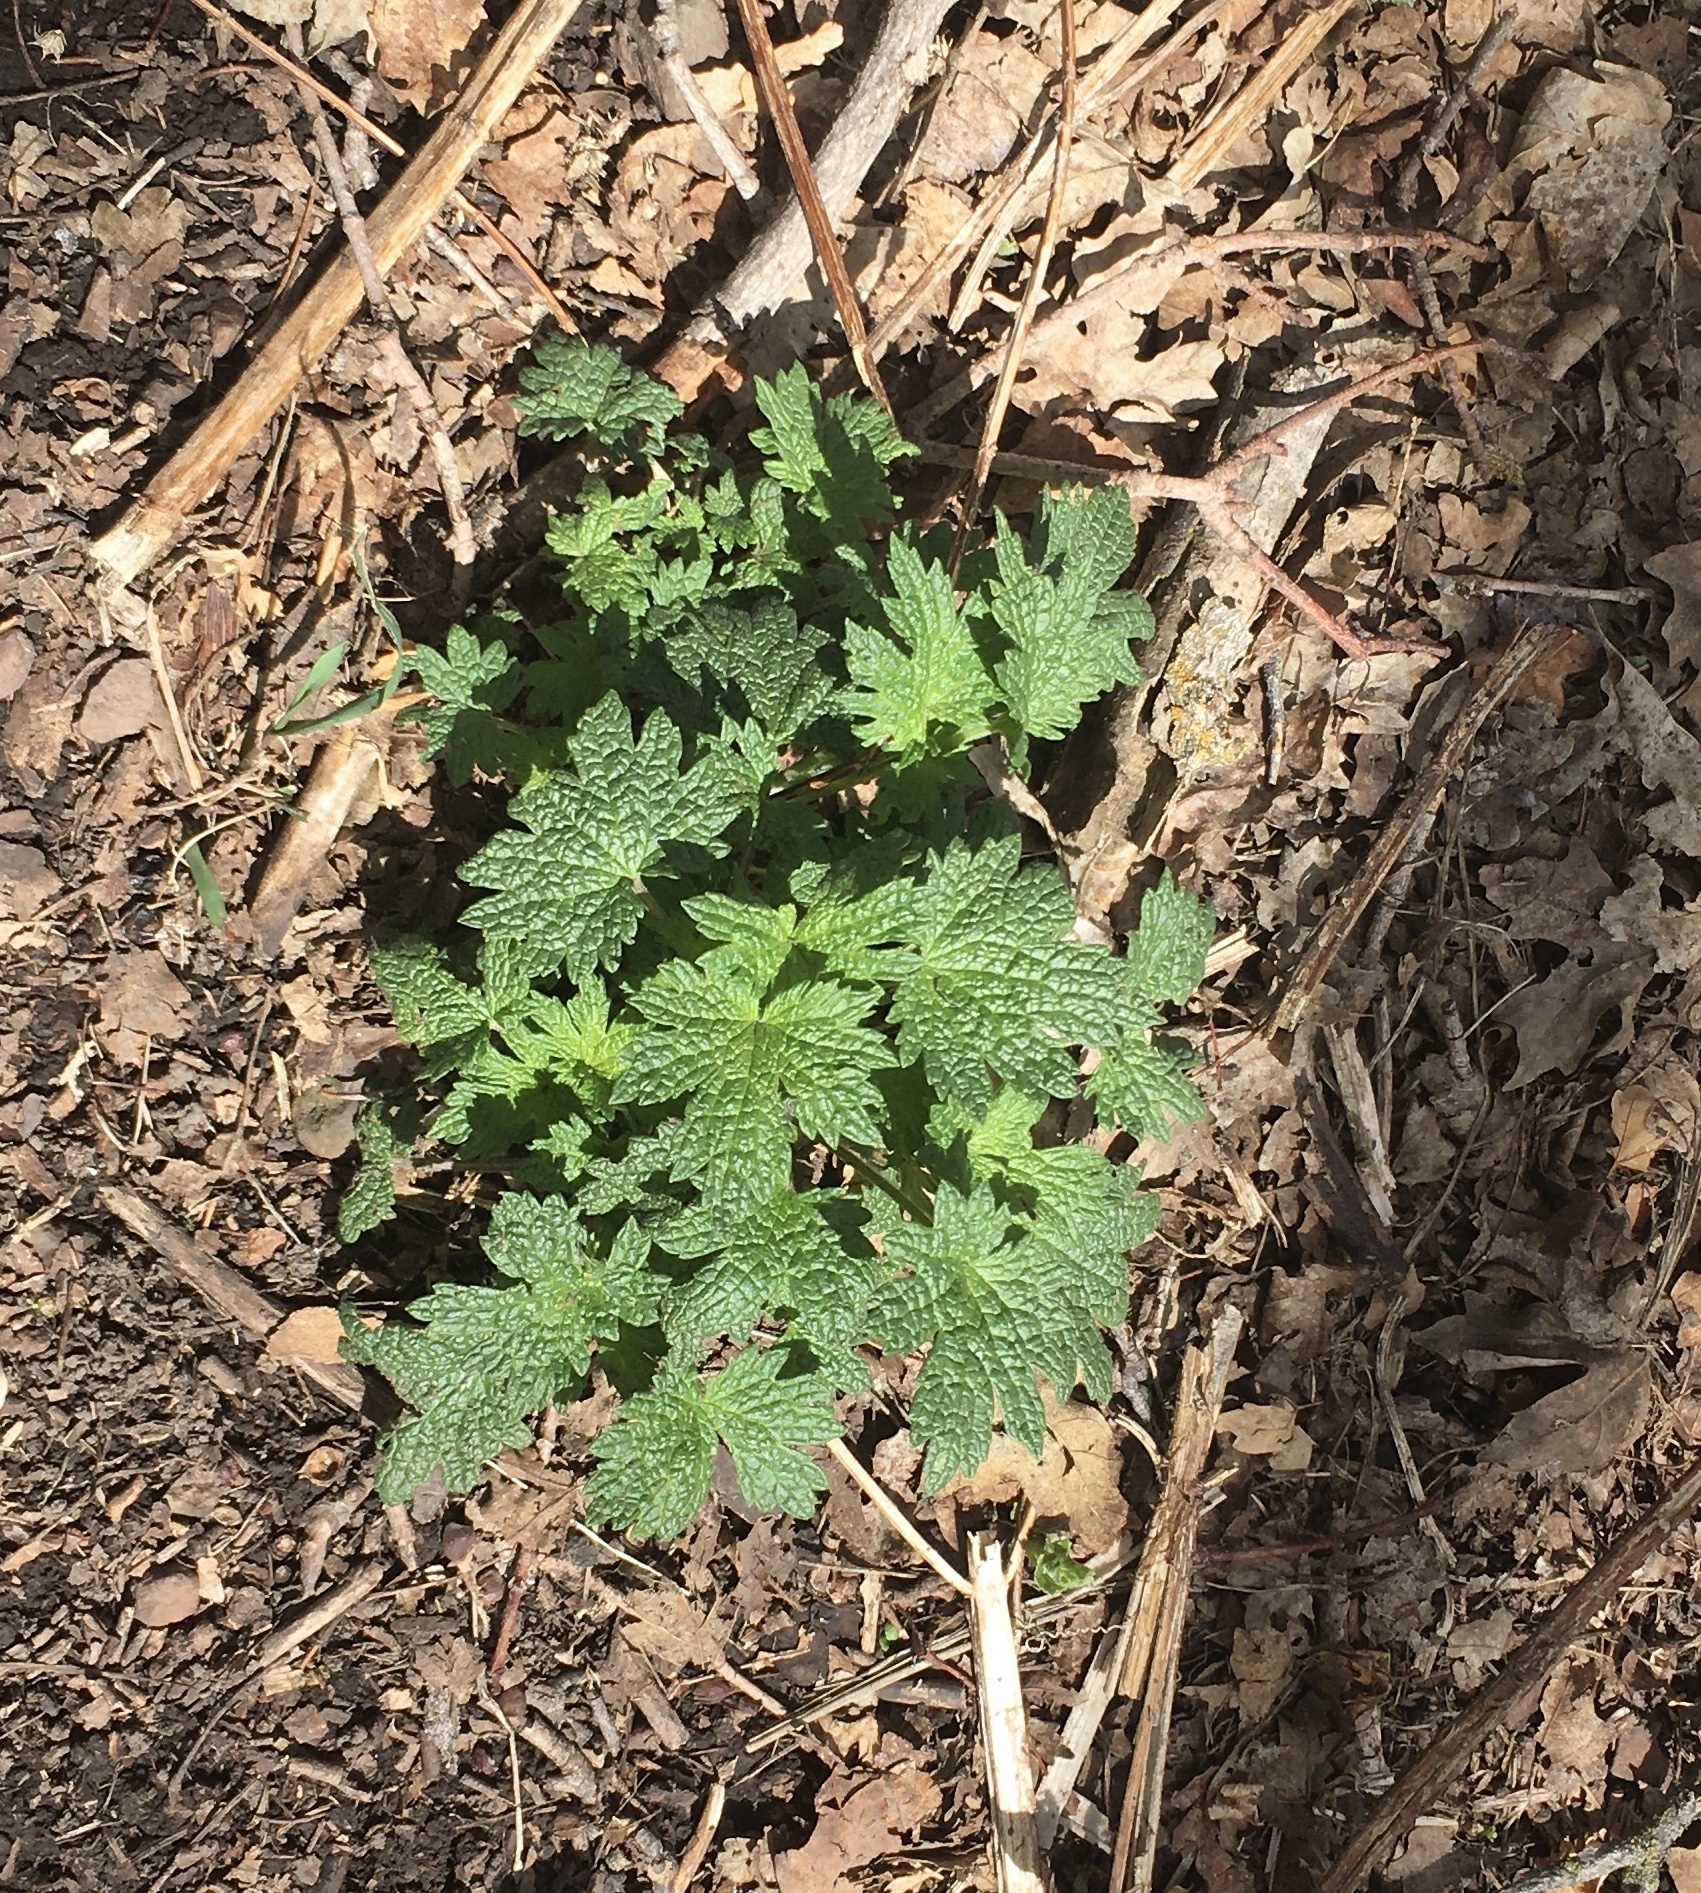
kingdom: Plantae
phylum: Tracheophyta
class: Magnoliopsida
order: Lamiales
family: Lamiaceae
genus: Leonurus
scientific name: Leonurus cardiaca
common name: Motherwort
